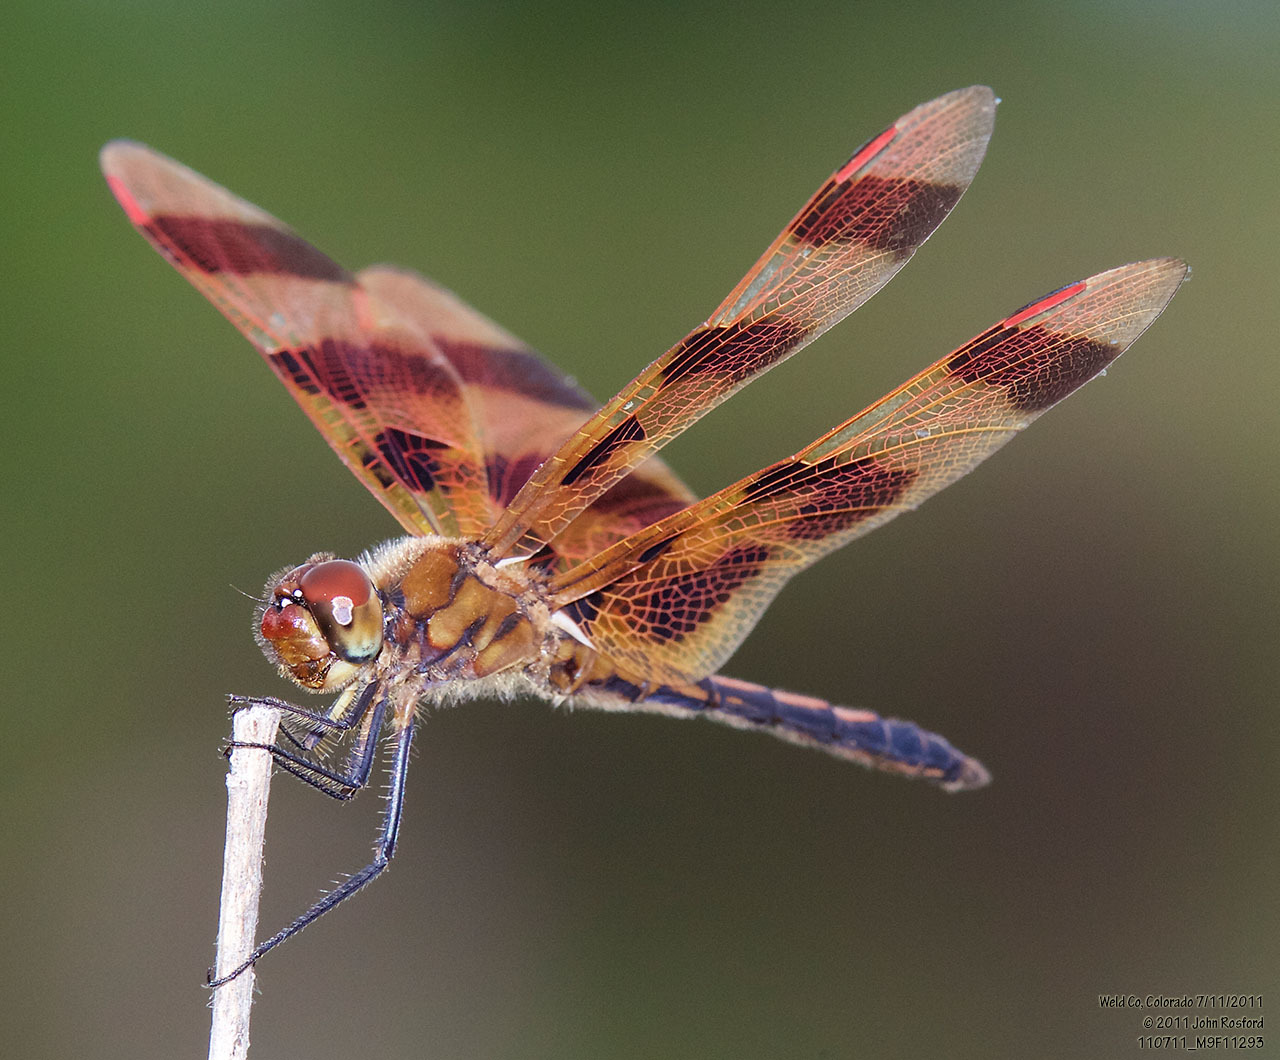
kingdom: Animalia
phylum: Arthropoda
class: Insecta
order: Odonata
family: Libellulidae
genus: Celithemis
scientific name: Celithemis eponina
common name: Halloween pennant
